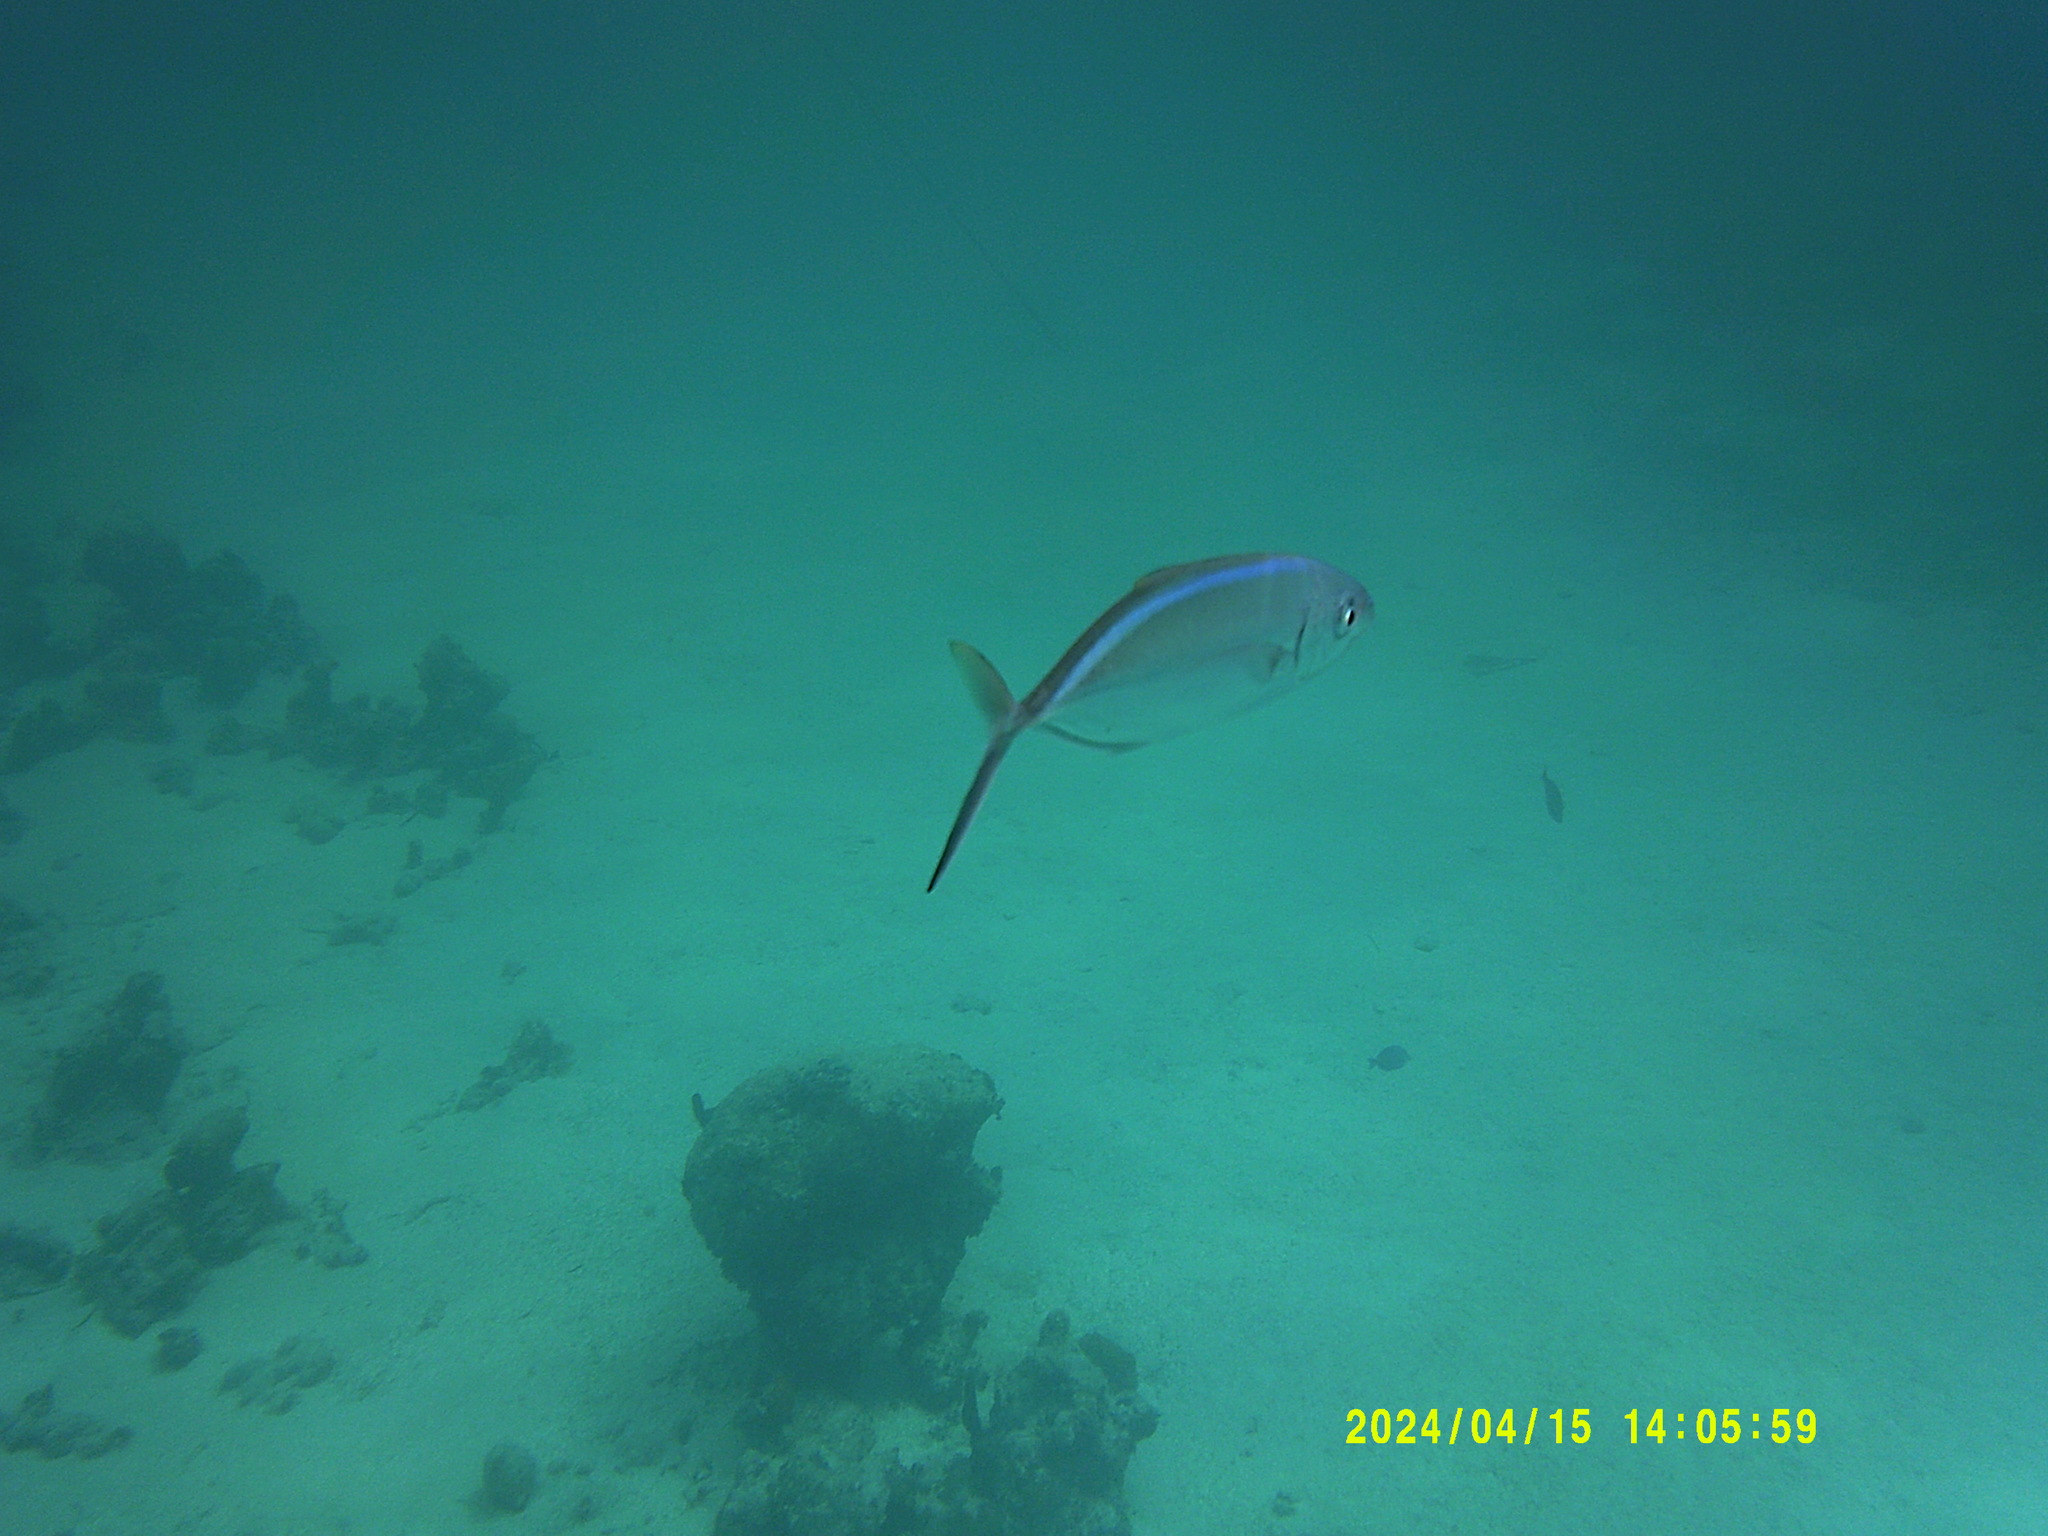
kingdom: Animalia
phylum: Chordata
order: Perciformes
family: Carangidae
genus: Caranx
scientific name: Caranx ruber
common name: Bar jack
